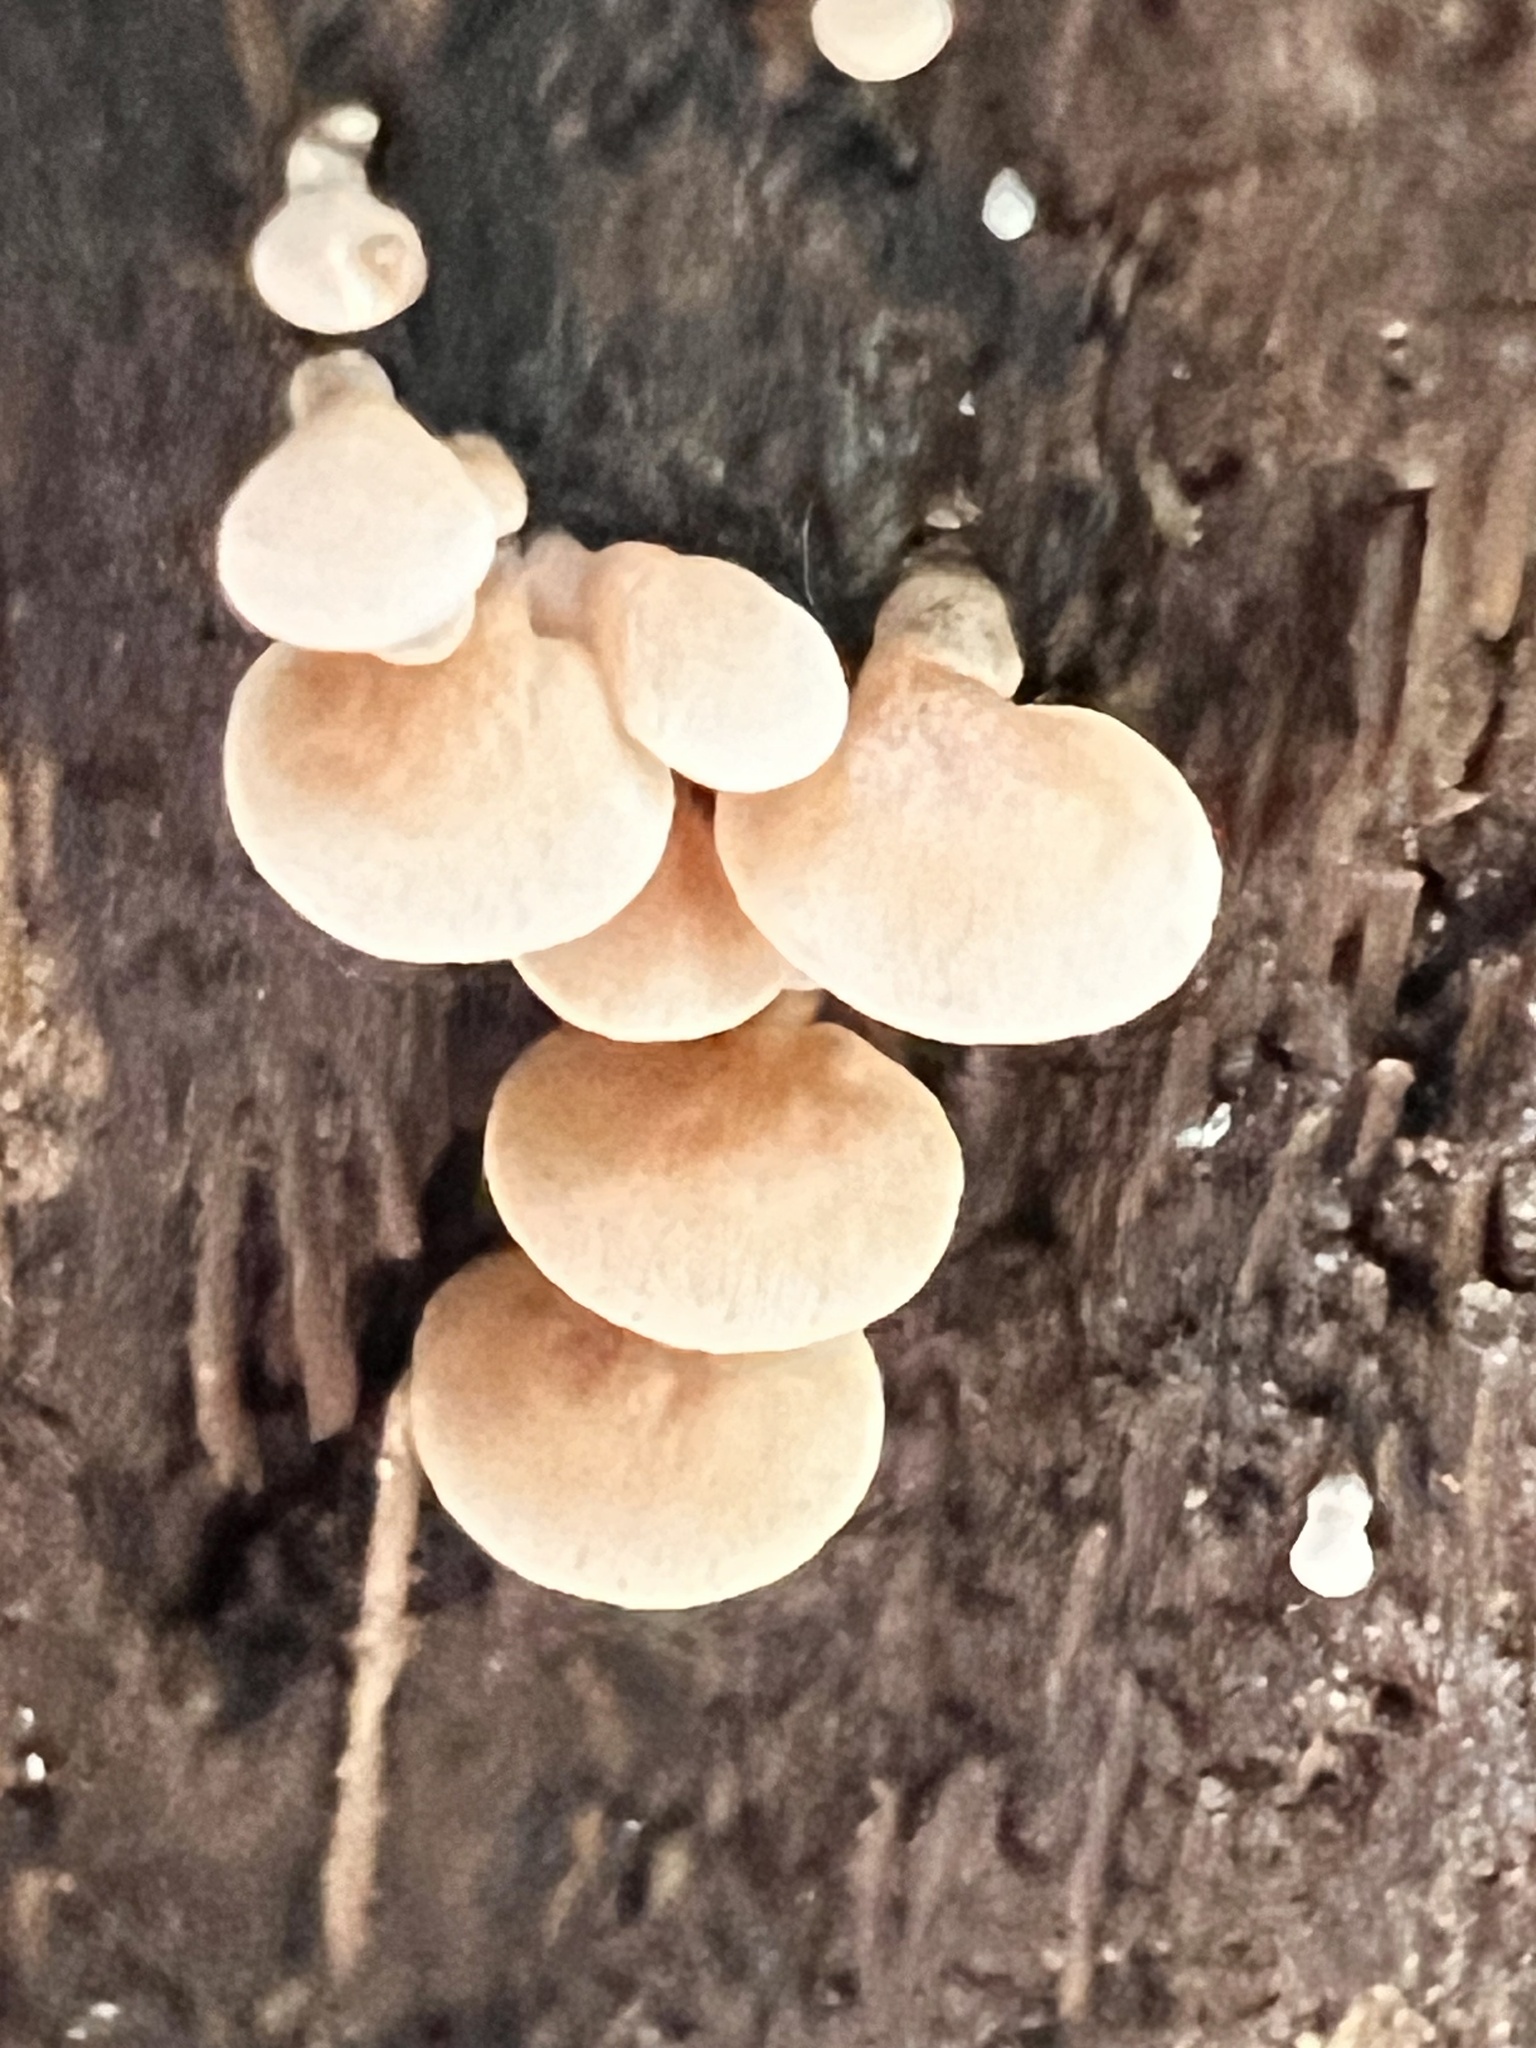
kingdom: Fungi
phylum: Basidiomycota
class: Agaricomycetes
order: Agaricales
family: Mycenaceae
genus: Panellus
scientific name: Panellus luxfilamentus
